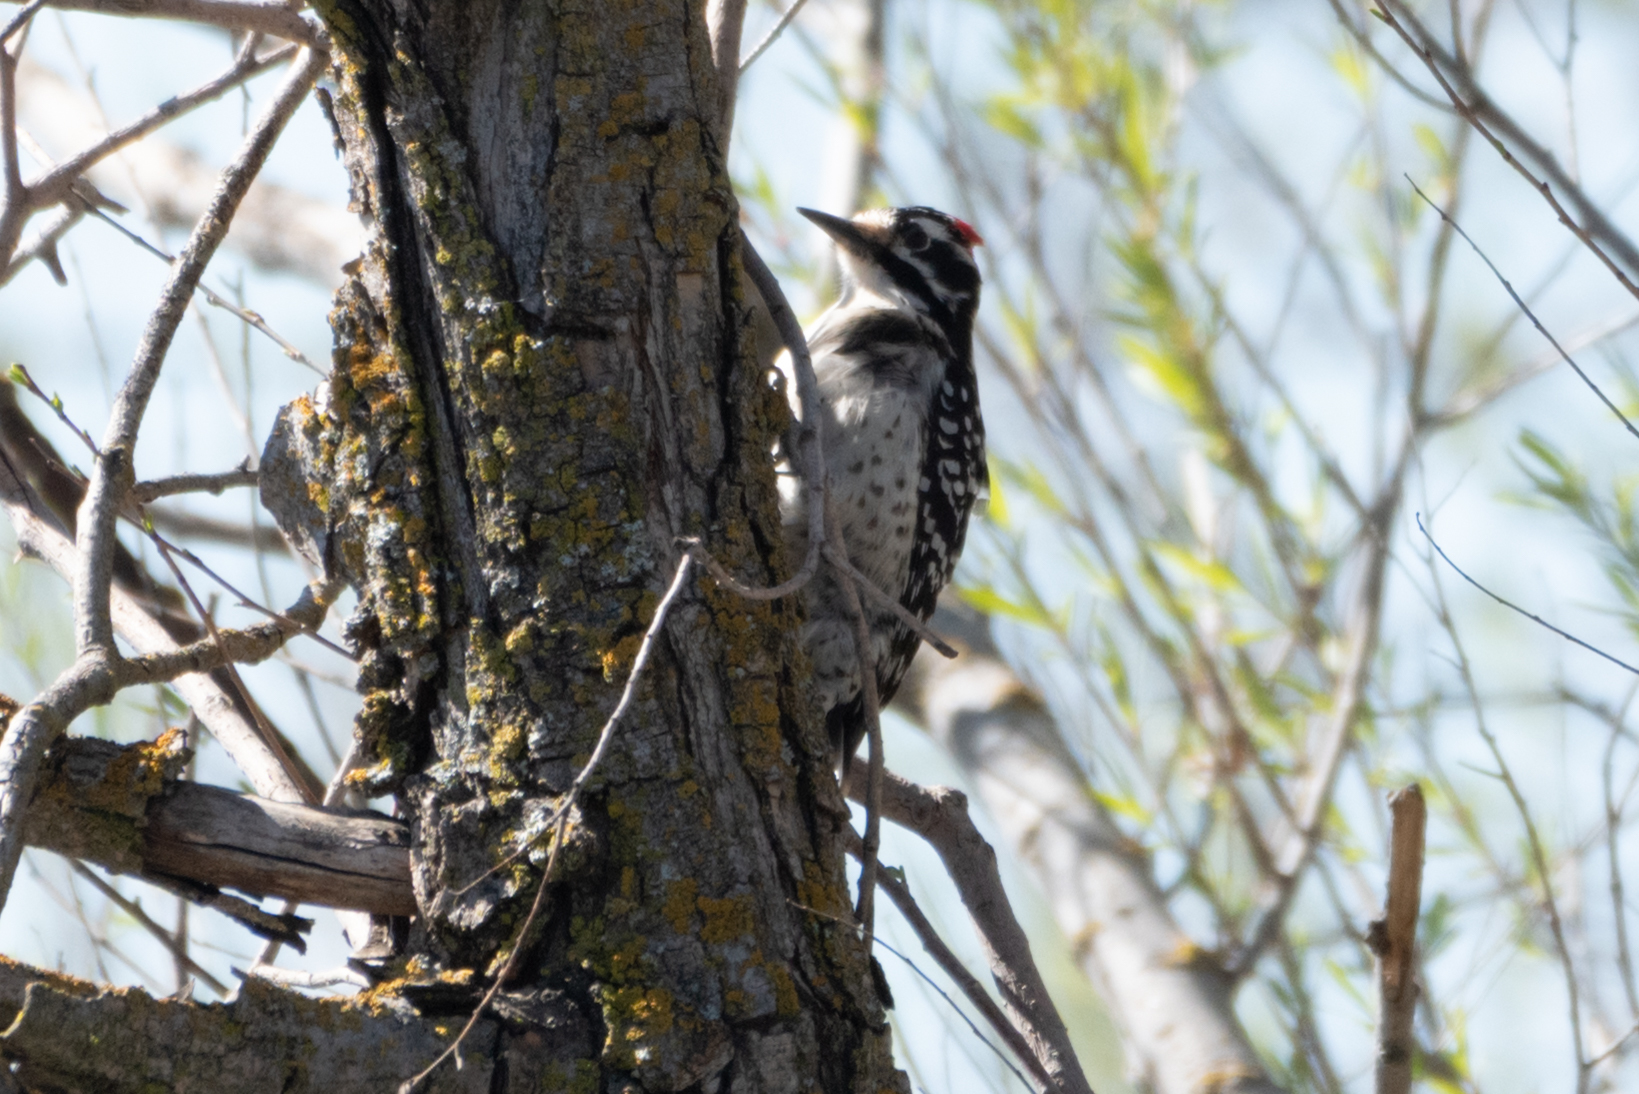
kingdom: Animalia
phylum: Chordata
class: Aves
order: Piciformes
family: Picidae
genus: Dryobates
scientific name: Dryobates nuttallii
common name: Nuttall's woodpecker
